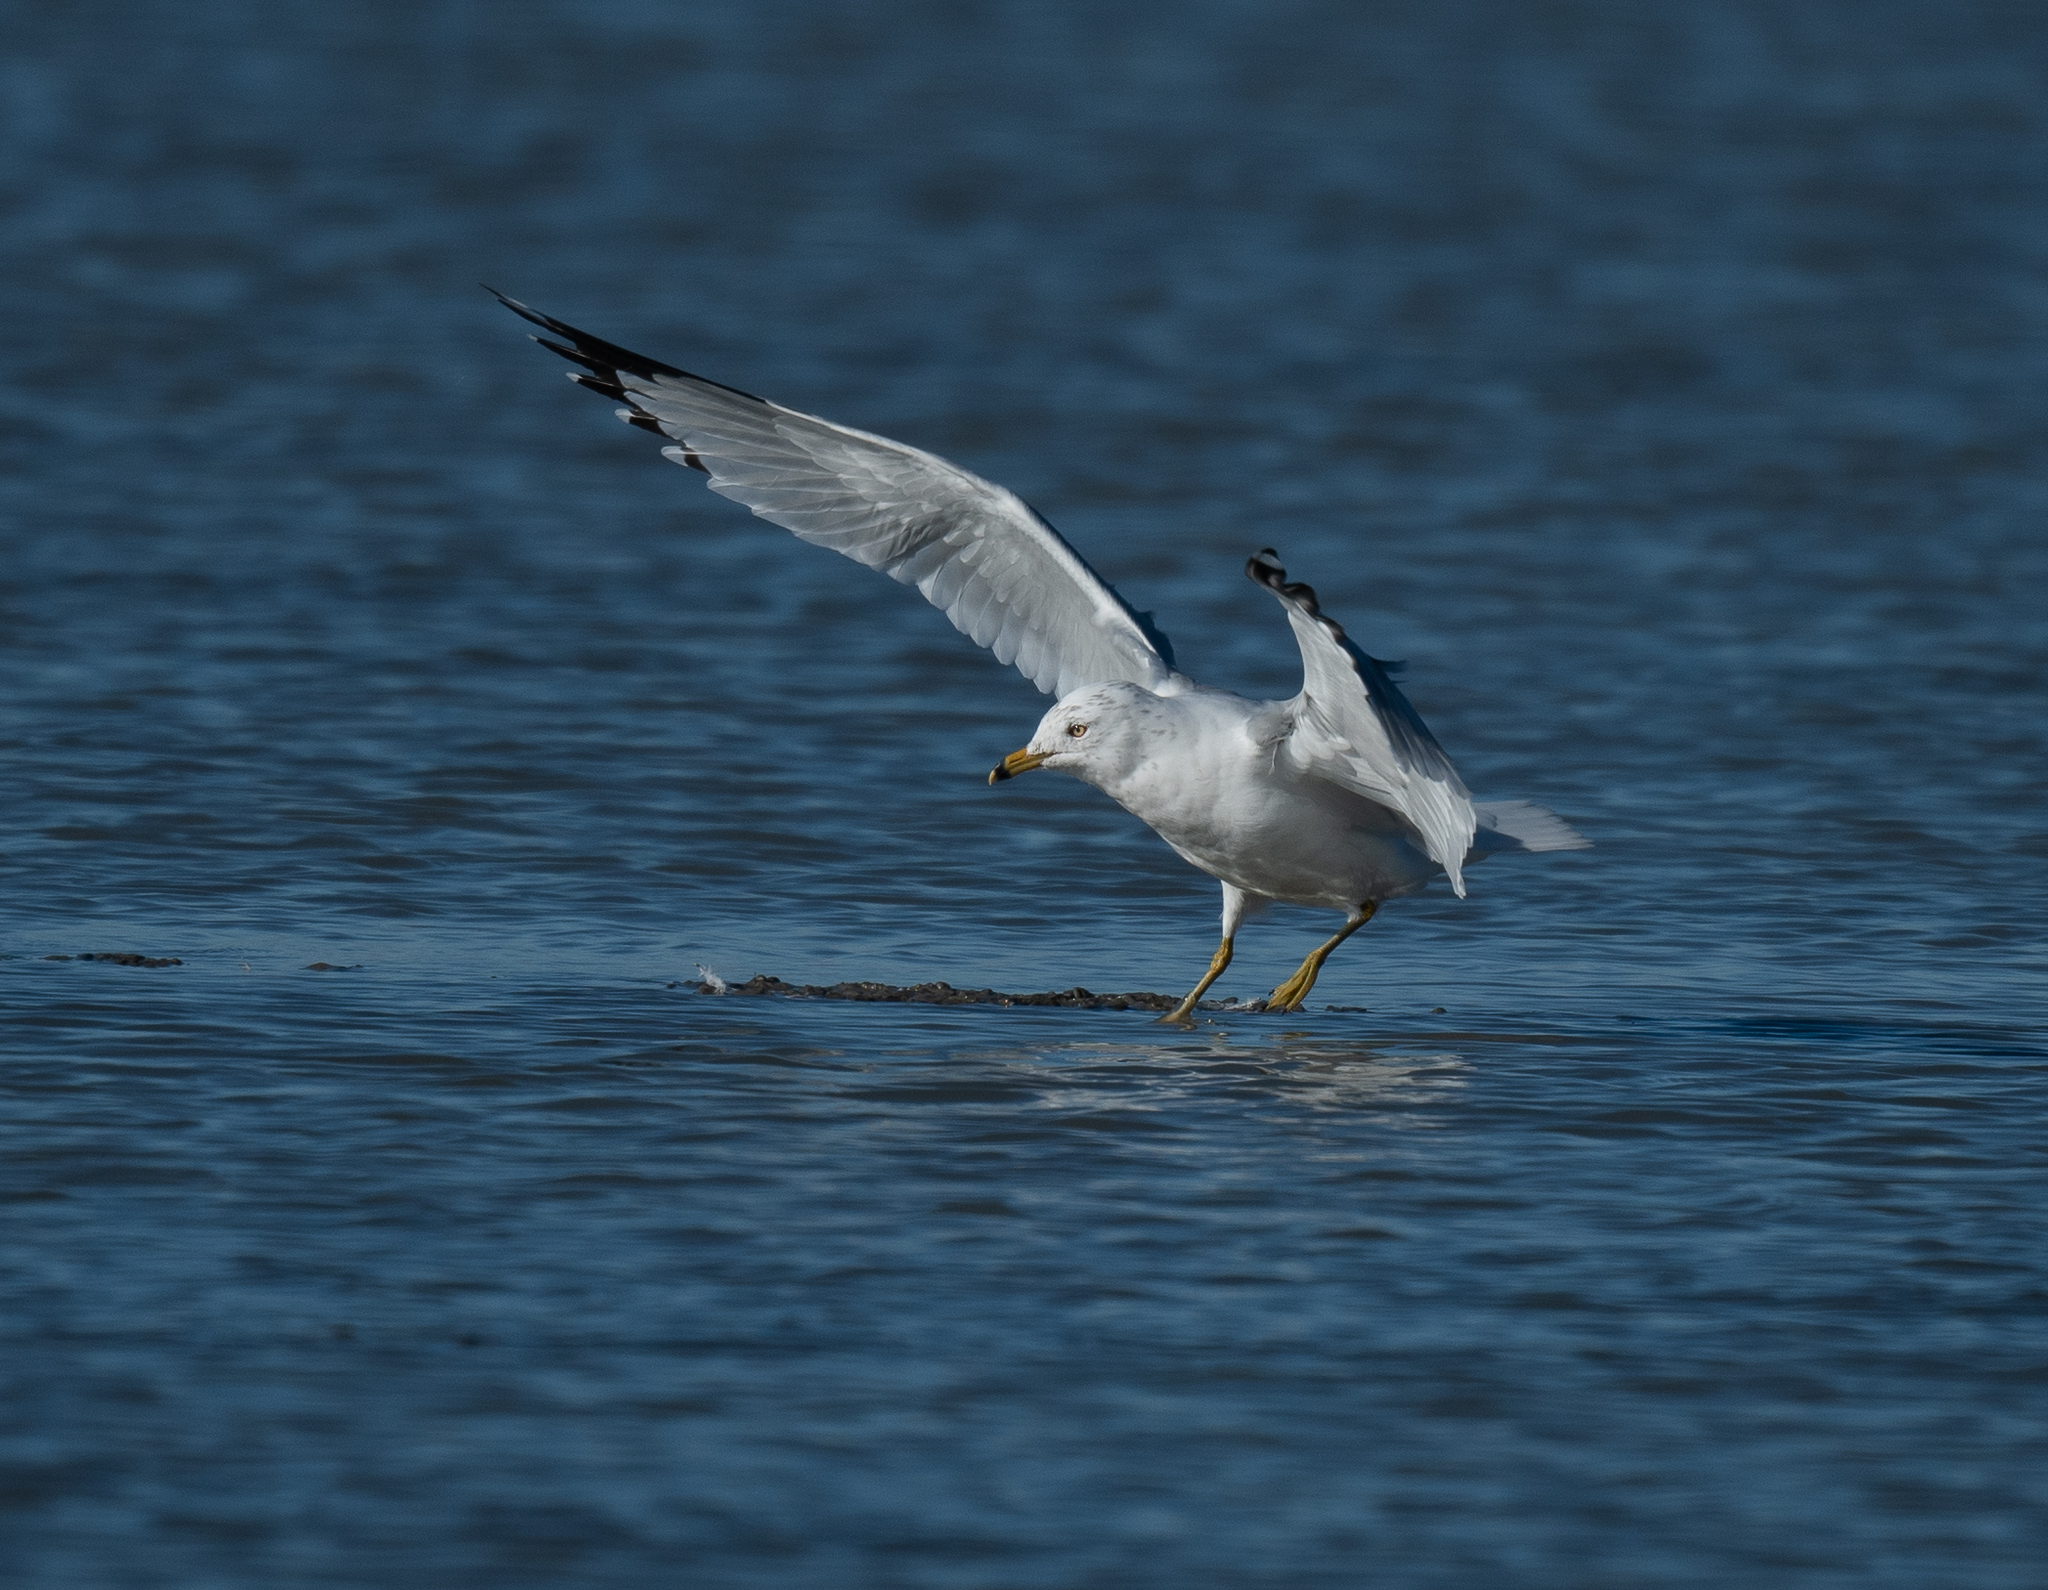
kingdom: Animalia
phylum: Chordata
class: Aves
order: Charadriiformes
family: Laridae
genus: Larus
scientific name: Larus delawarensis
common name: Ring-billed gull
